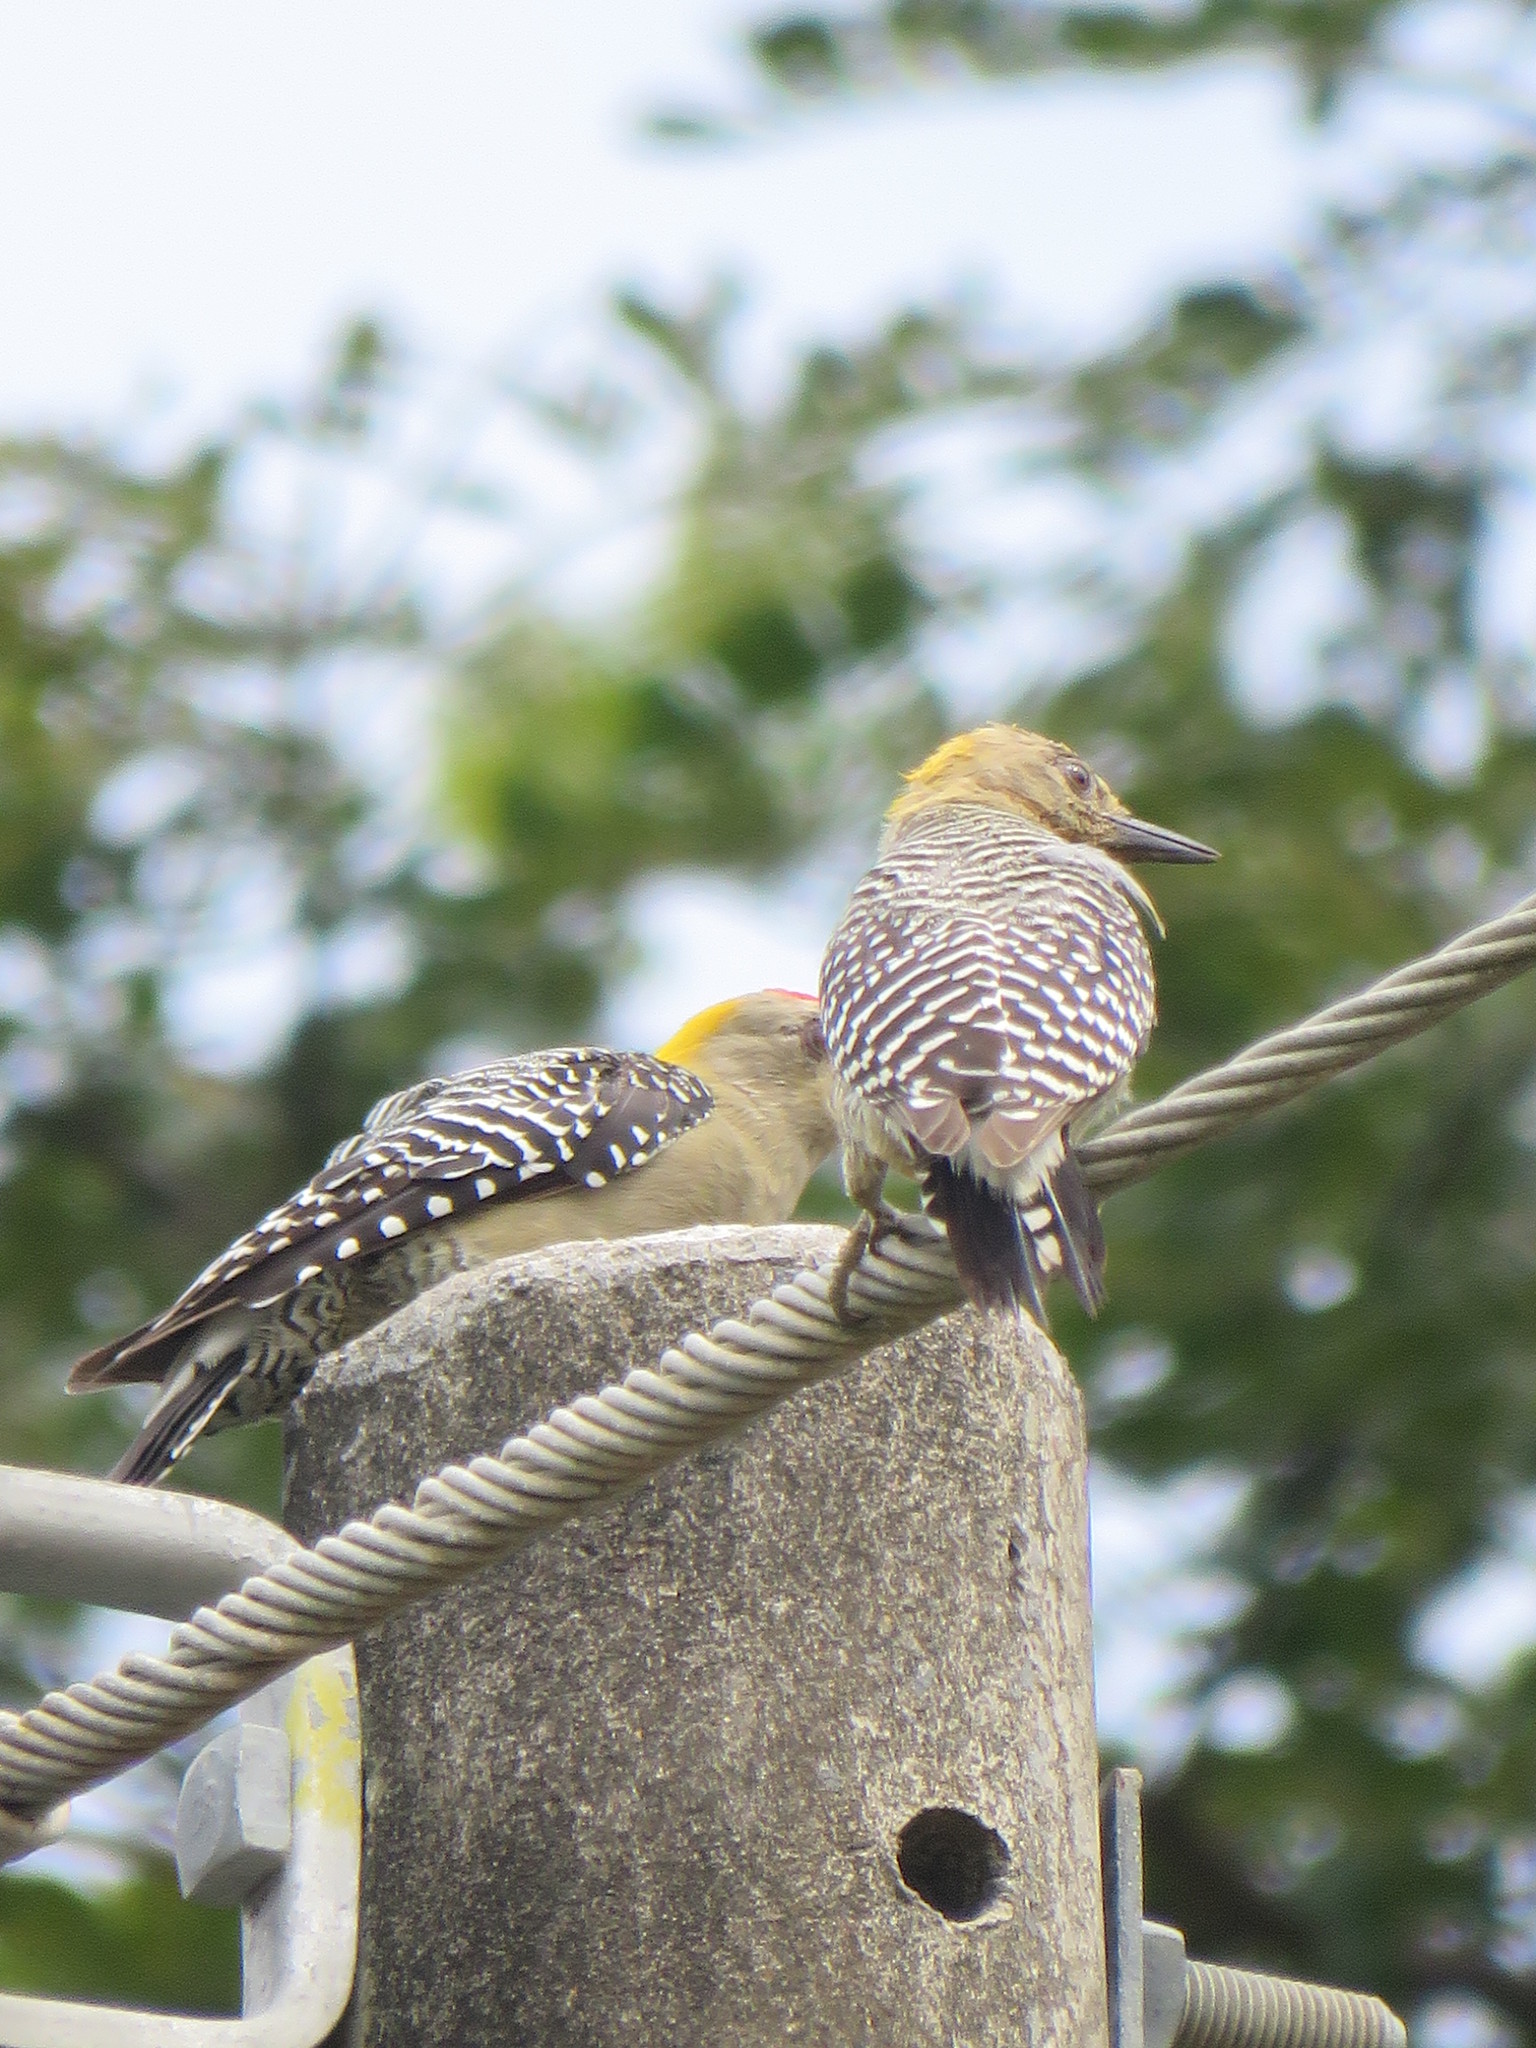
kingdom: Animalia
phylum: Chordata
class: Aves
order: Piciformes
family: Picidae
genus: Melanerpes
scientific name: Melanerpes hoffmannii
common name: Hoffmann's woodpecker
